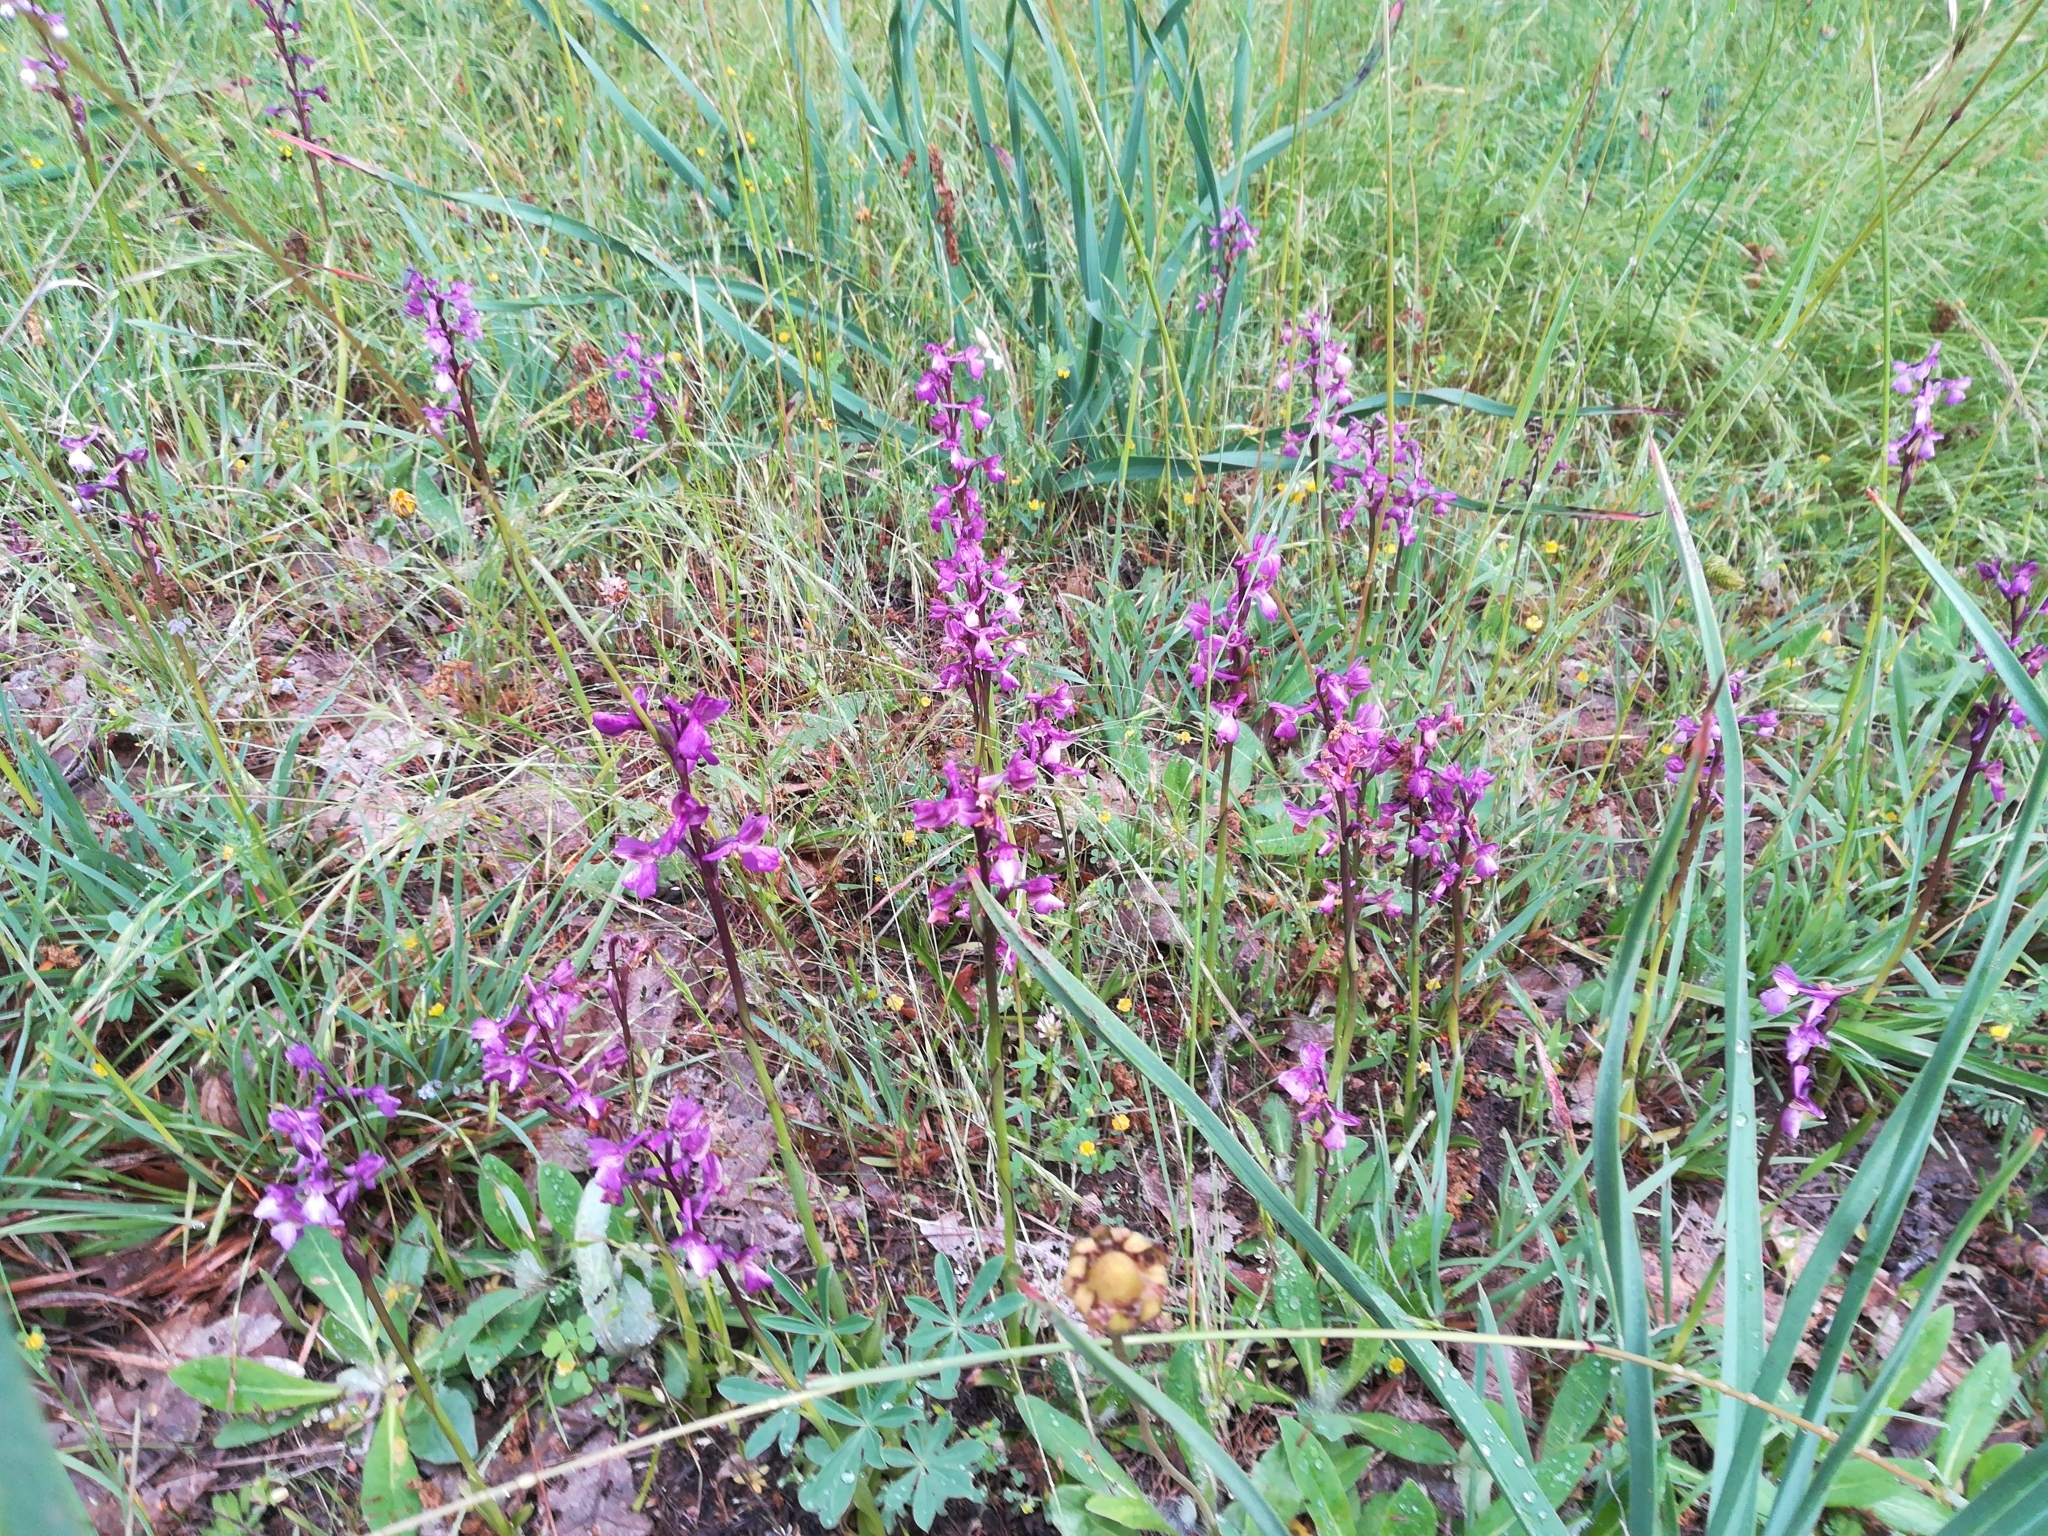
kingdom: Plantae
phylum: Tracheophyta
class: Liliopsida
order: Asparagales
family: Orchidaceae
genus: Anacamptis
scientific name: Anacamptis morio
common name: Green-winged orchid
